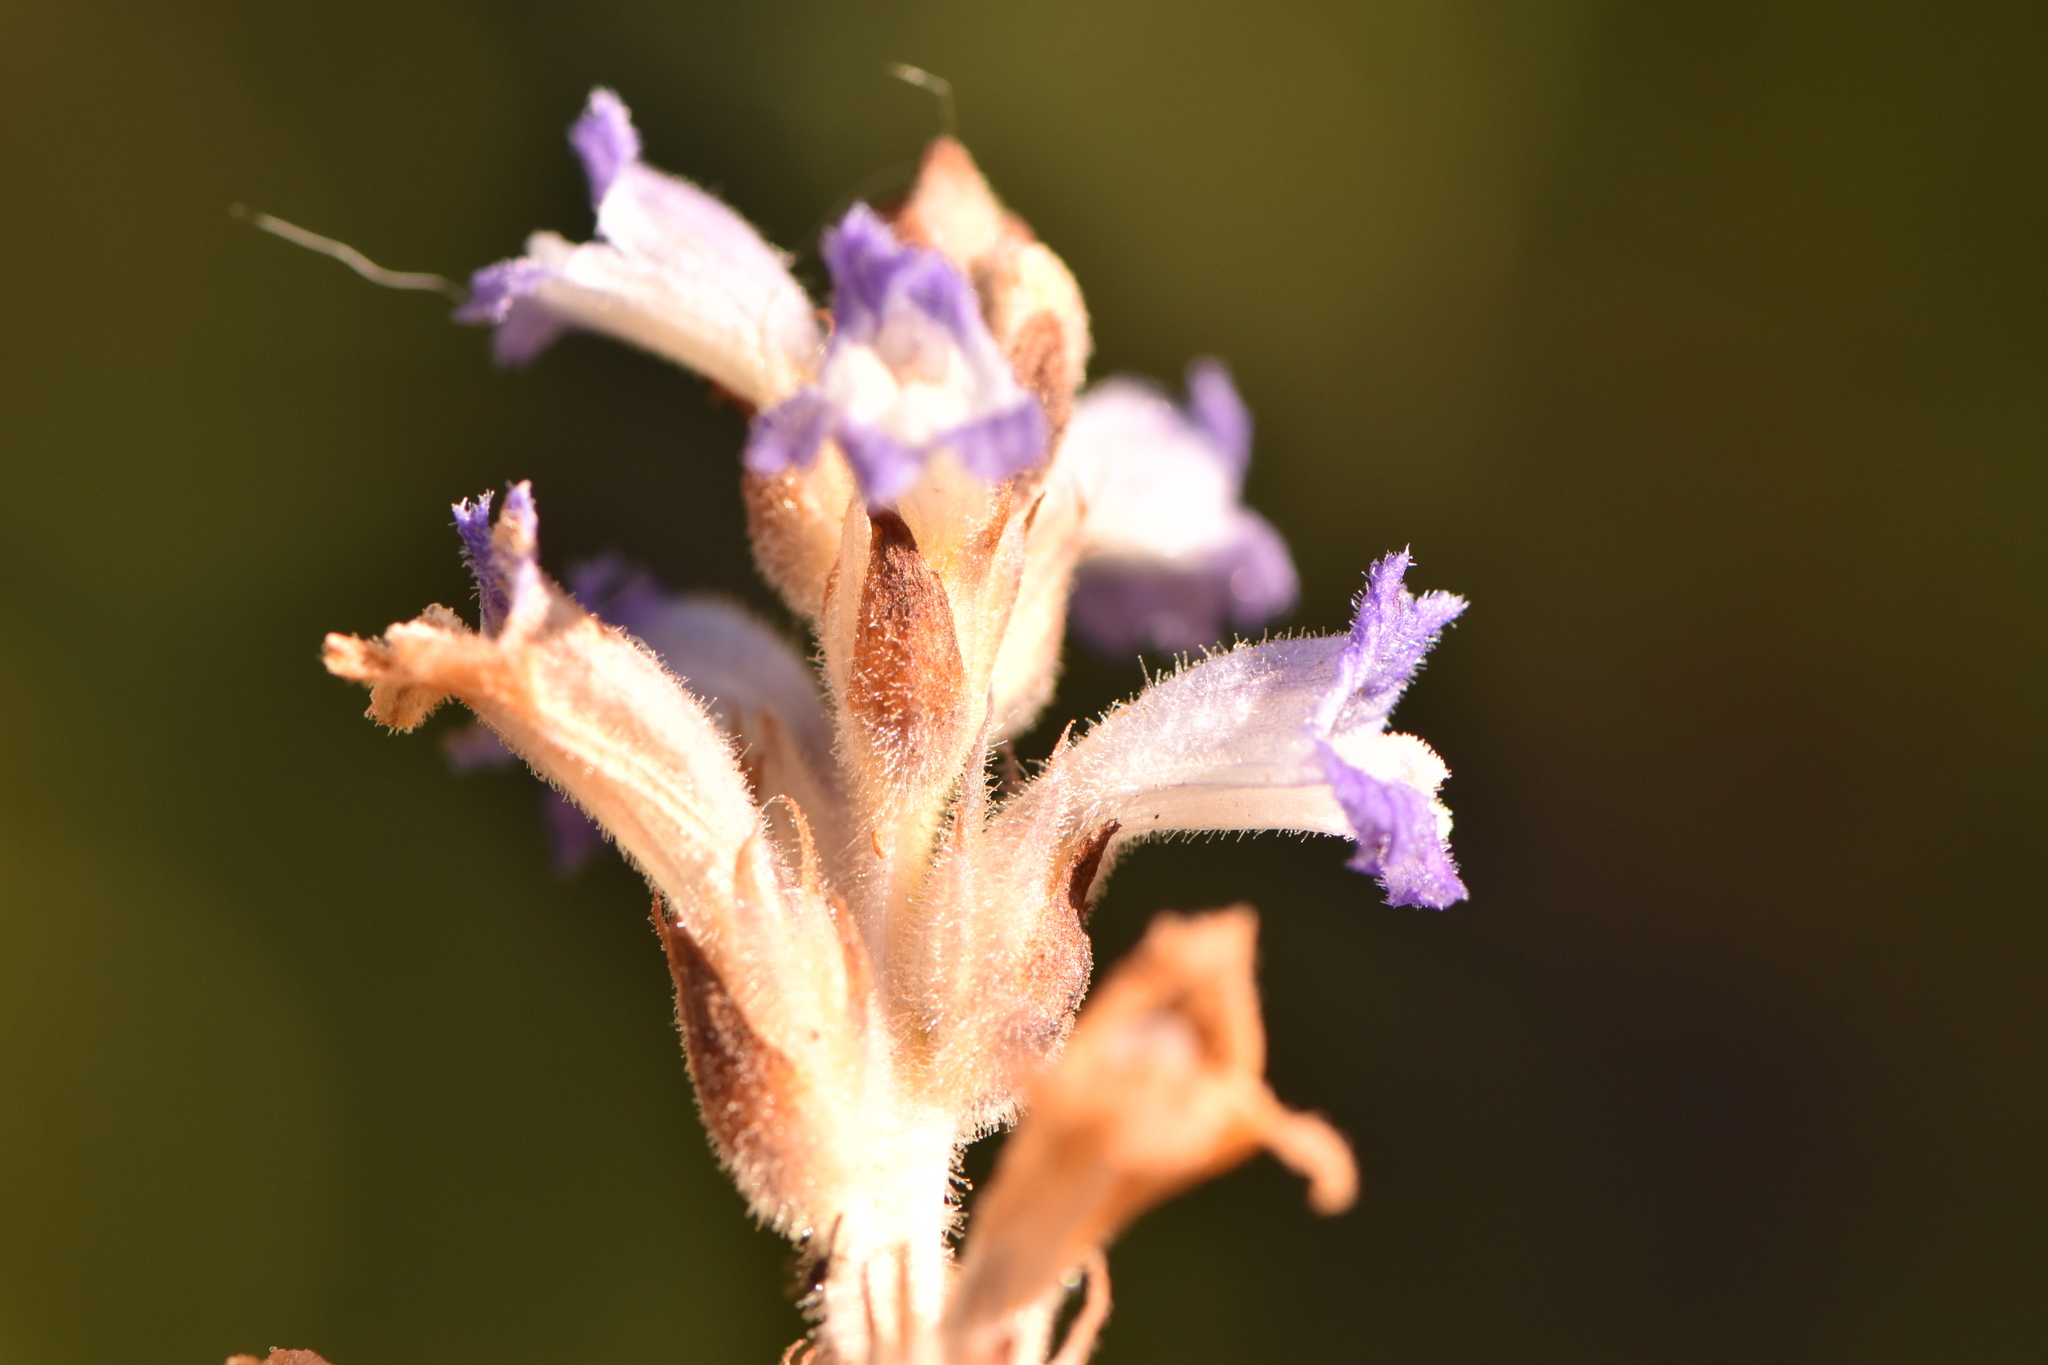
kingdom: Plantae
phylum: Tracheophyta
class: Magnoliopsida
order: Lamiales
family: Orobanchaceae
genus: Phelipanche
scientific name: Phelipanche mutelii
